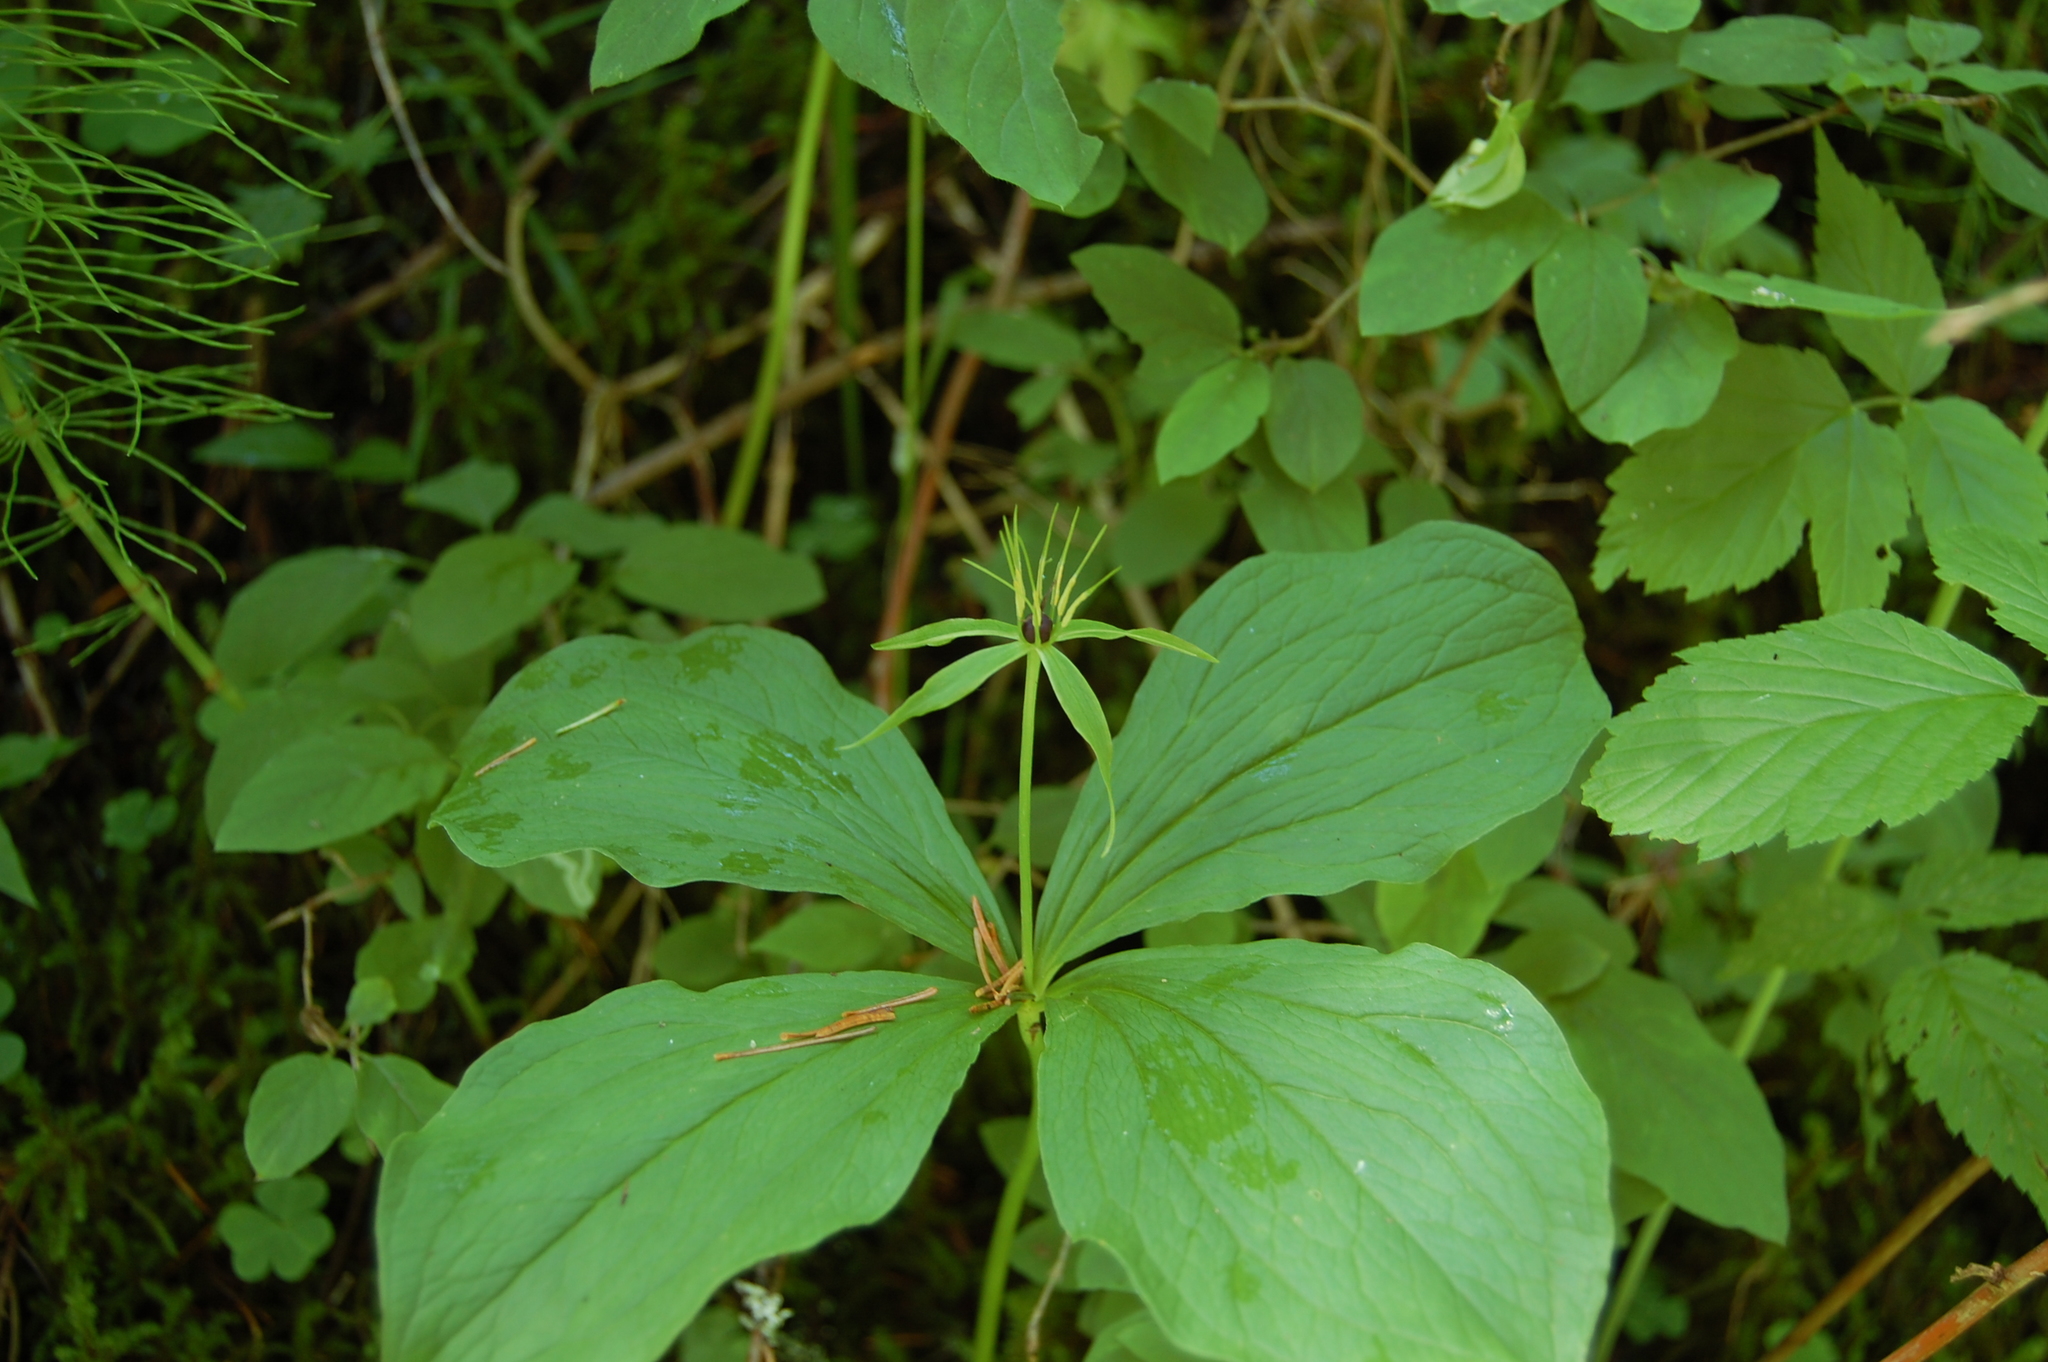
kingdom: Plantae
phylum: Tracheophyta
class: Liliopsida
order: Liliales
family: Melanthiaceae
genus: Paris
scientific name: Paris quadrifolia
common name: Herb-paris
